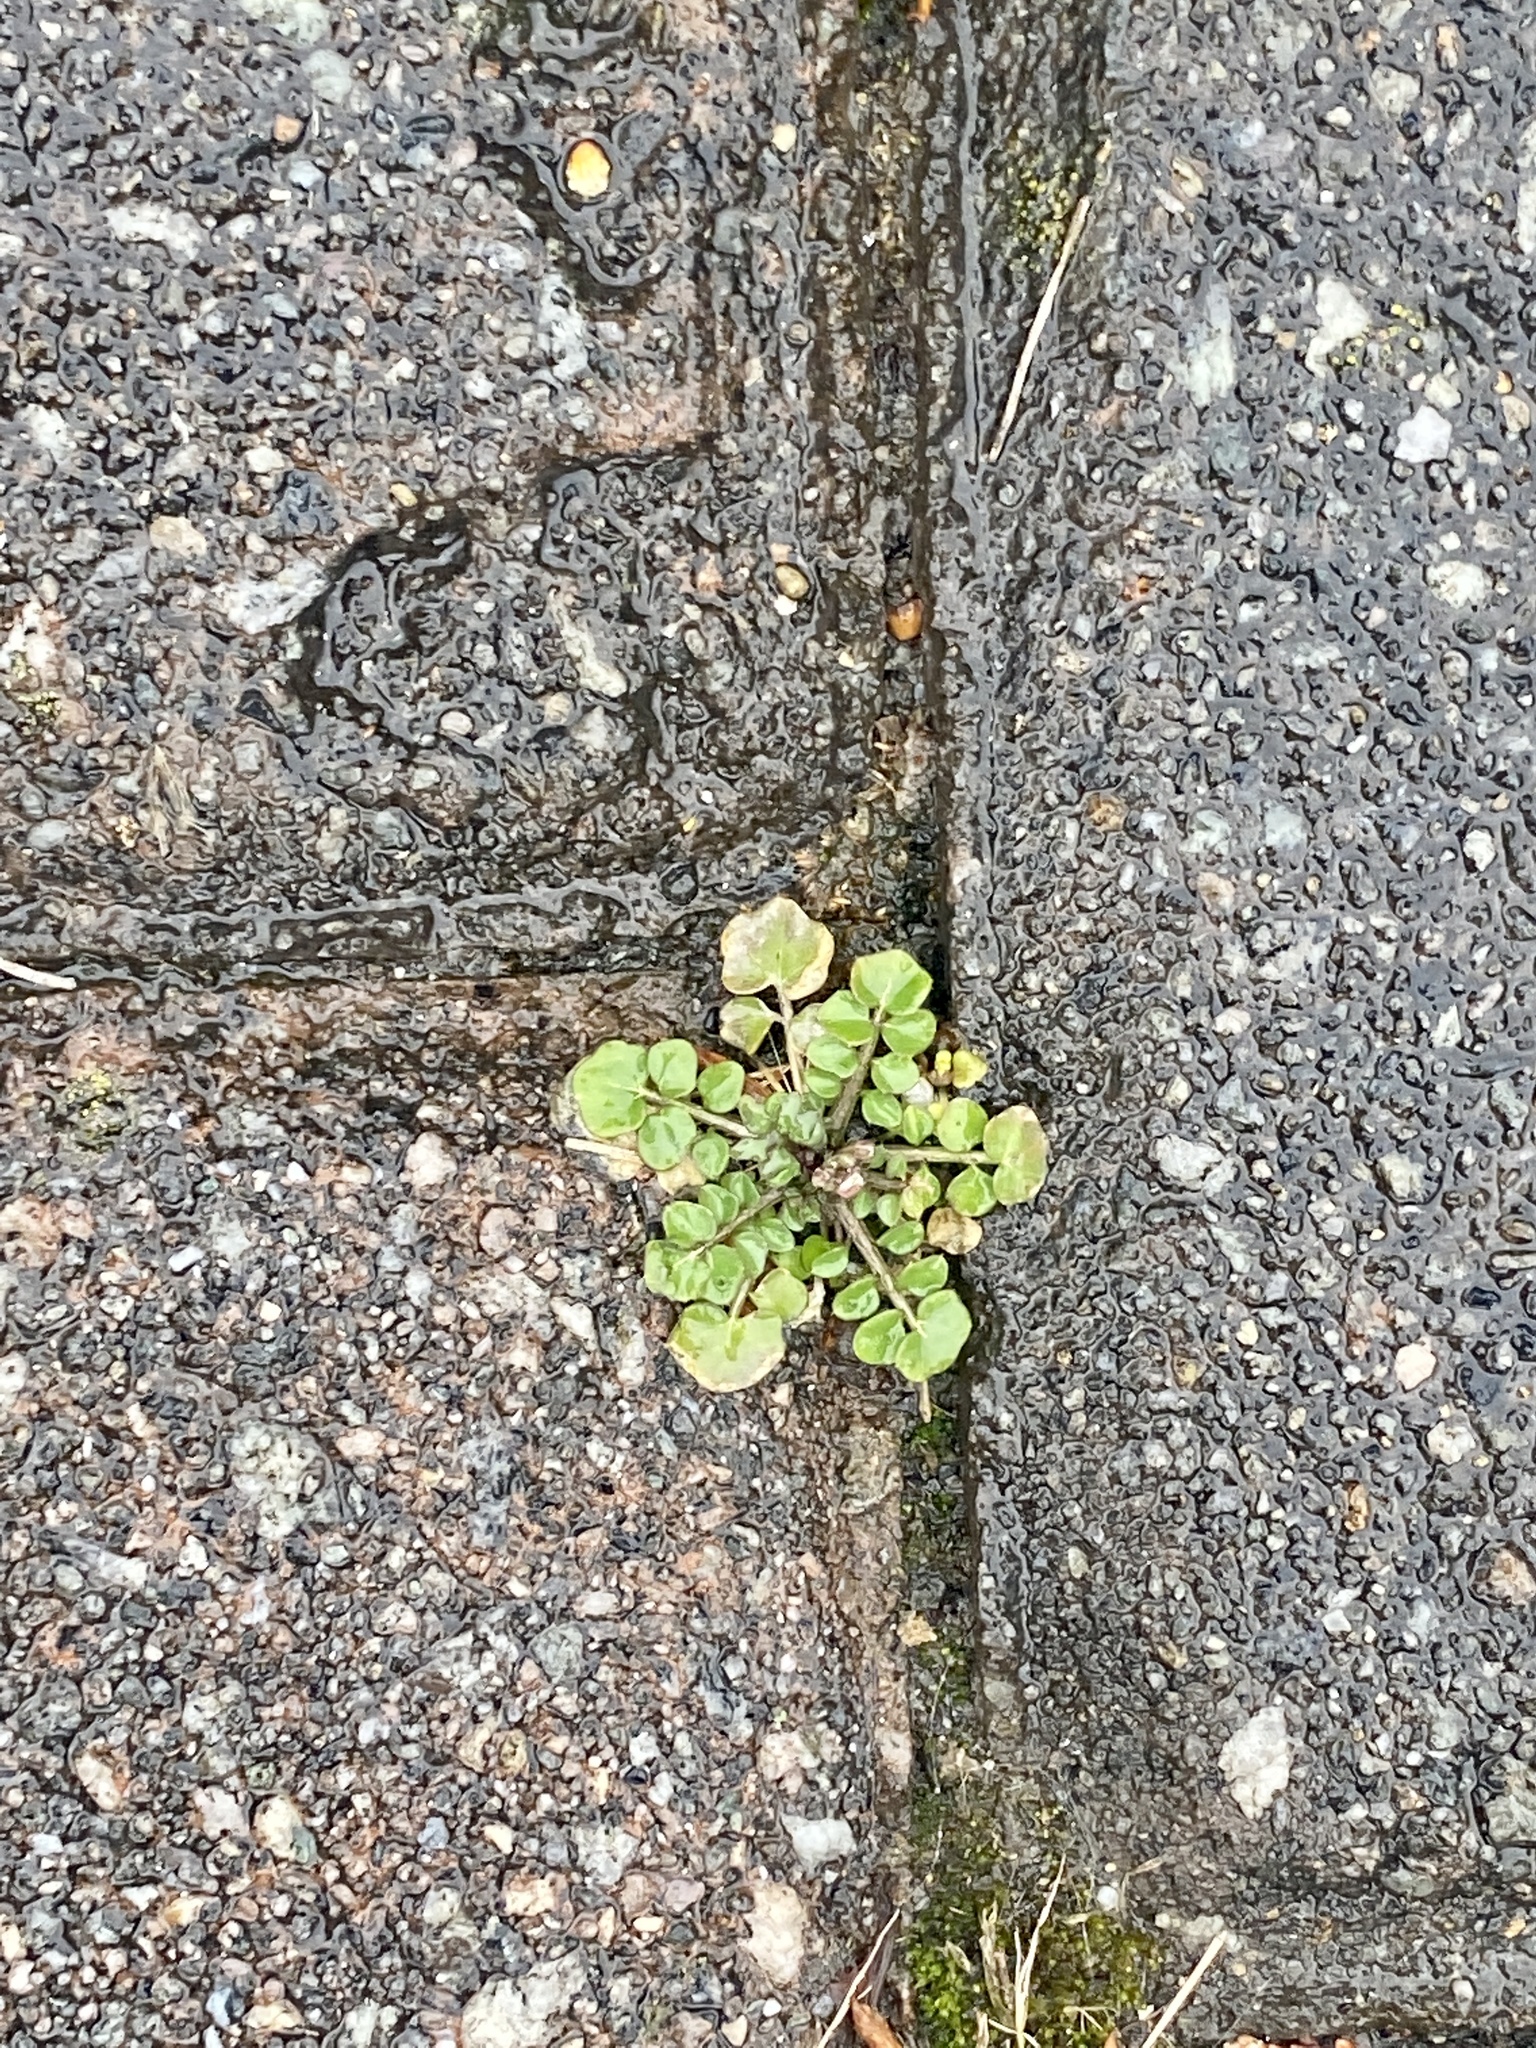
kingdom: Plantae
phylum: Tracheophyta
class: Magnoliopsida
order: Brassicales
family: Brassicaceae
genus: Cardamine
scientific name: Cardamine hirsuta
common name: Hairy bittercress
